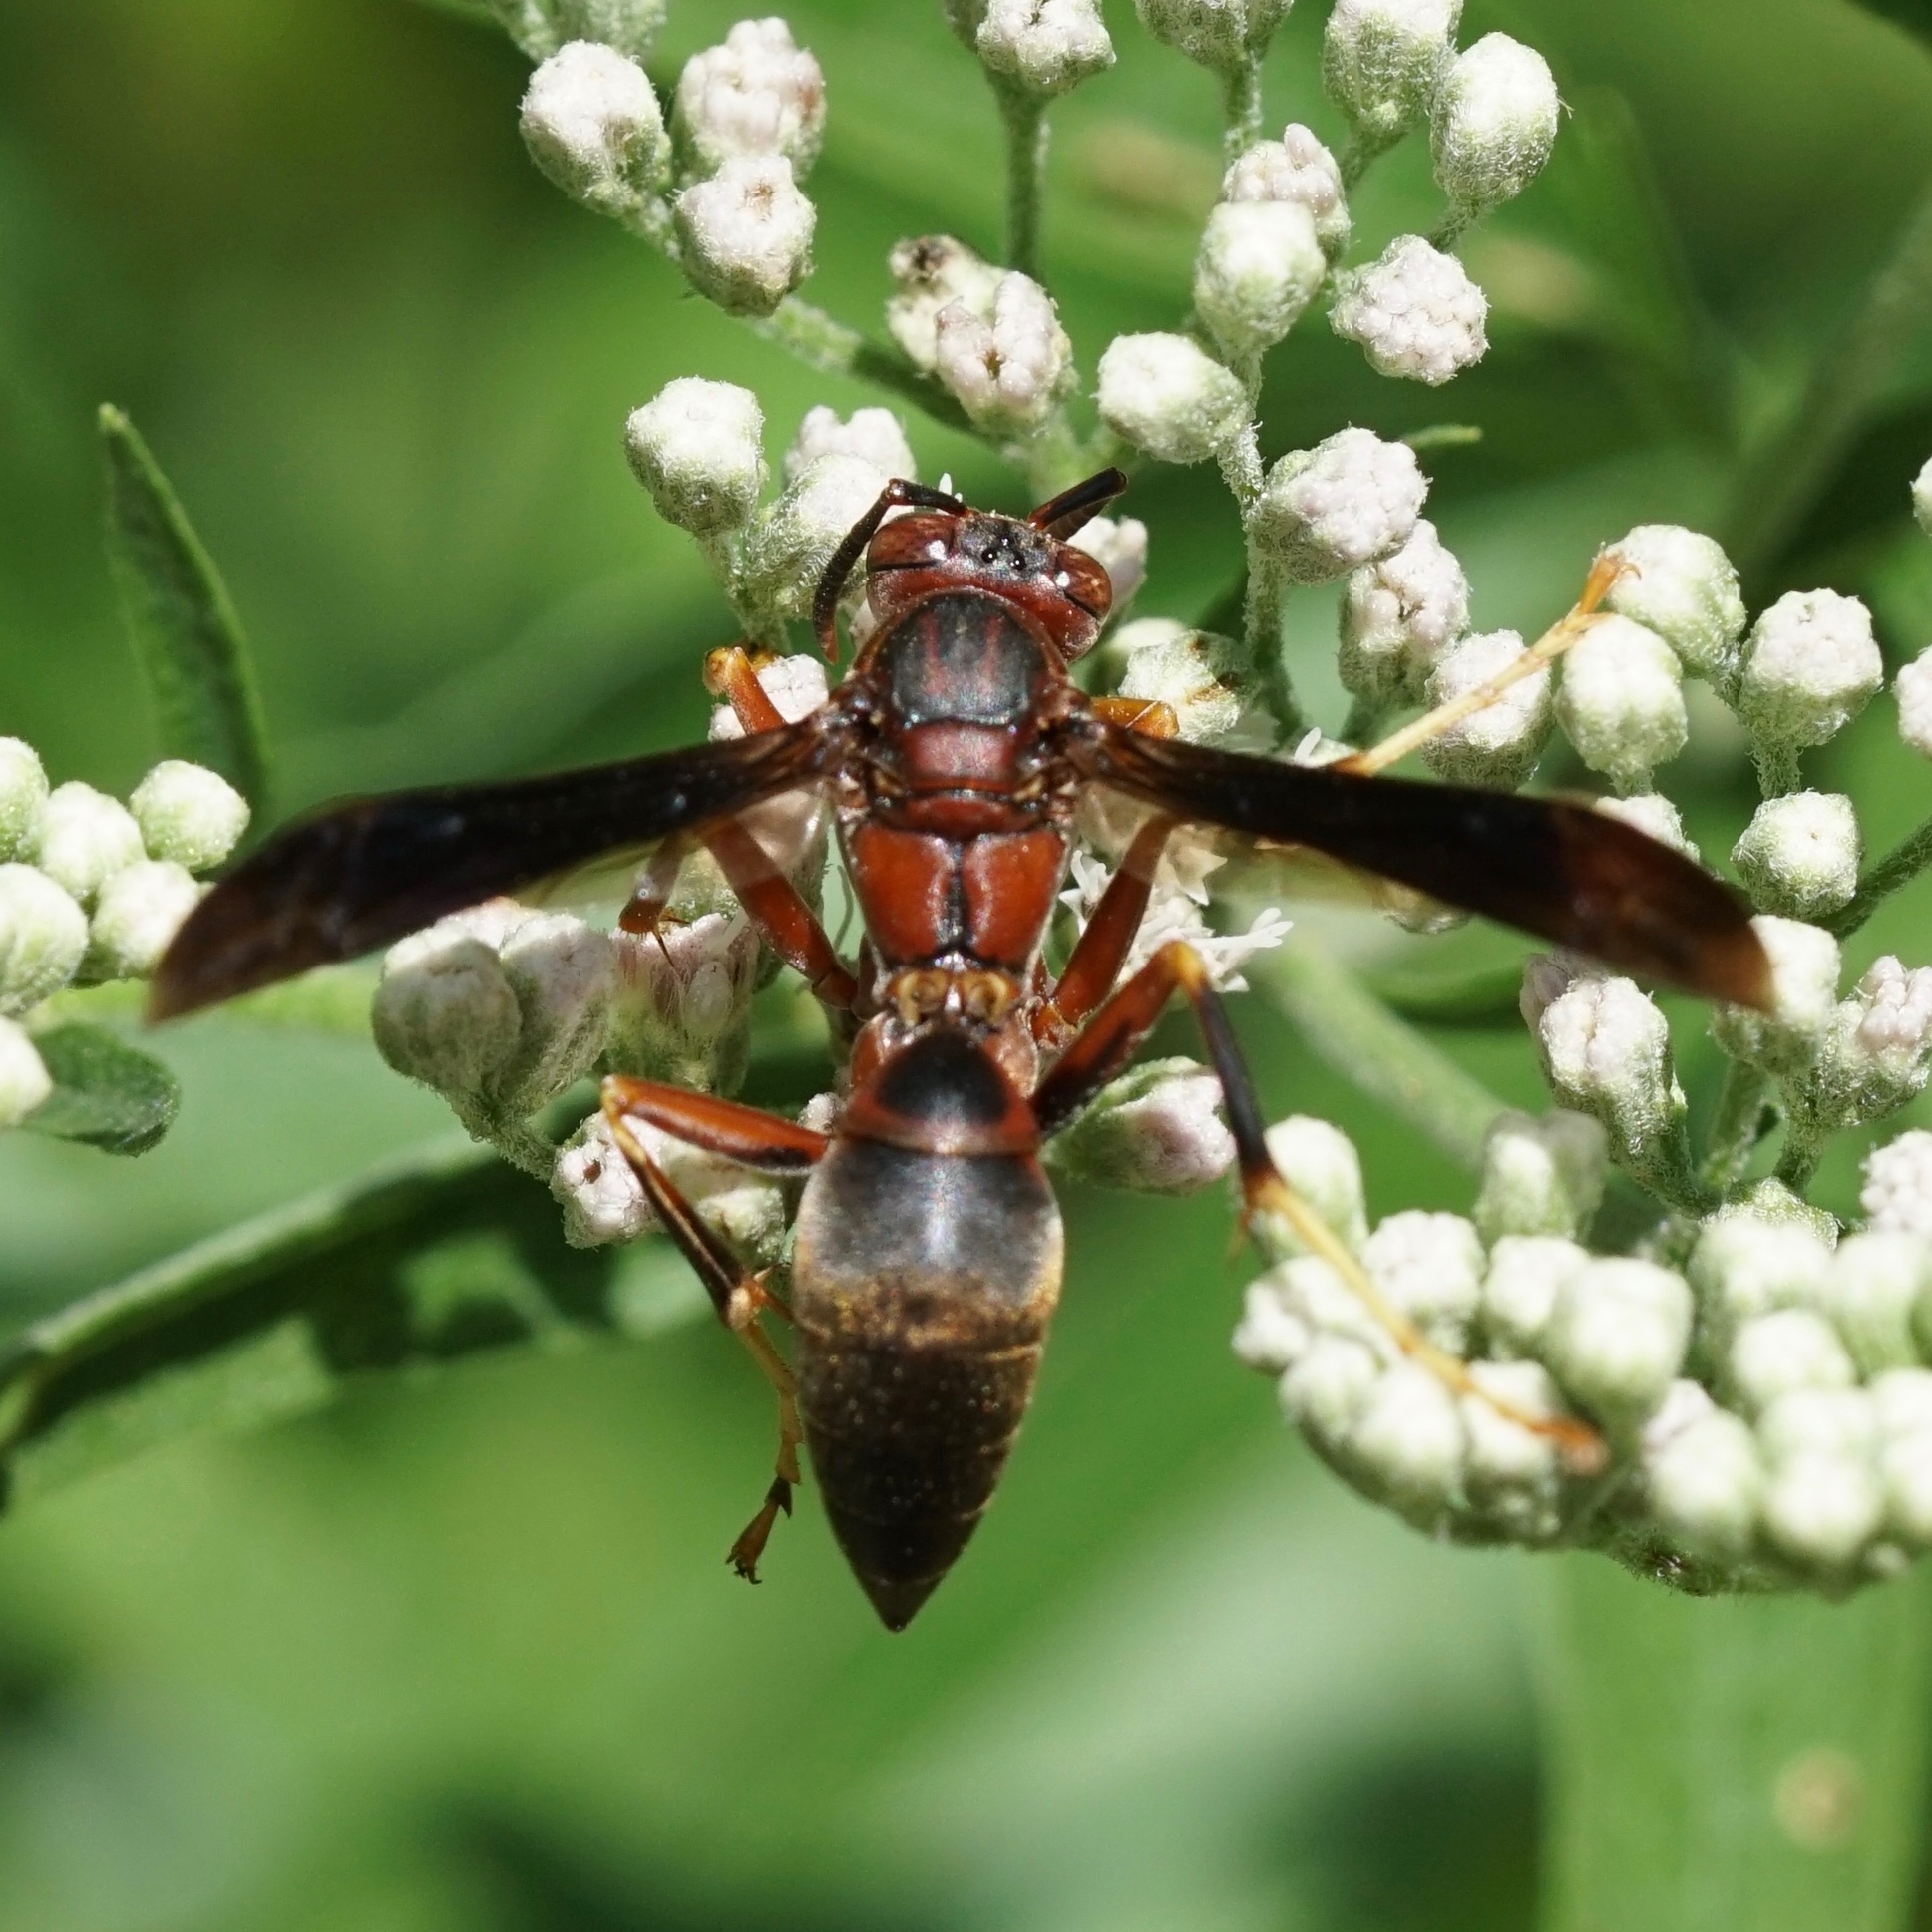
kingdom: Animalia
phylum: Arthropoda
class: Insecta
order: Hymenoptera
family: Eumenidae
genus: Polistes
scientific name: Polistes metricus
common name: Metric paper wasp
